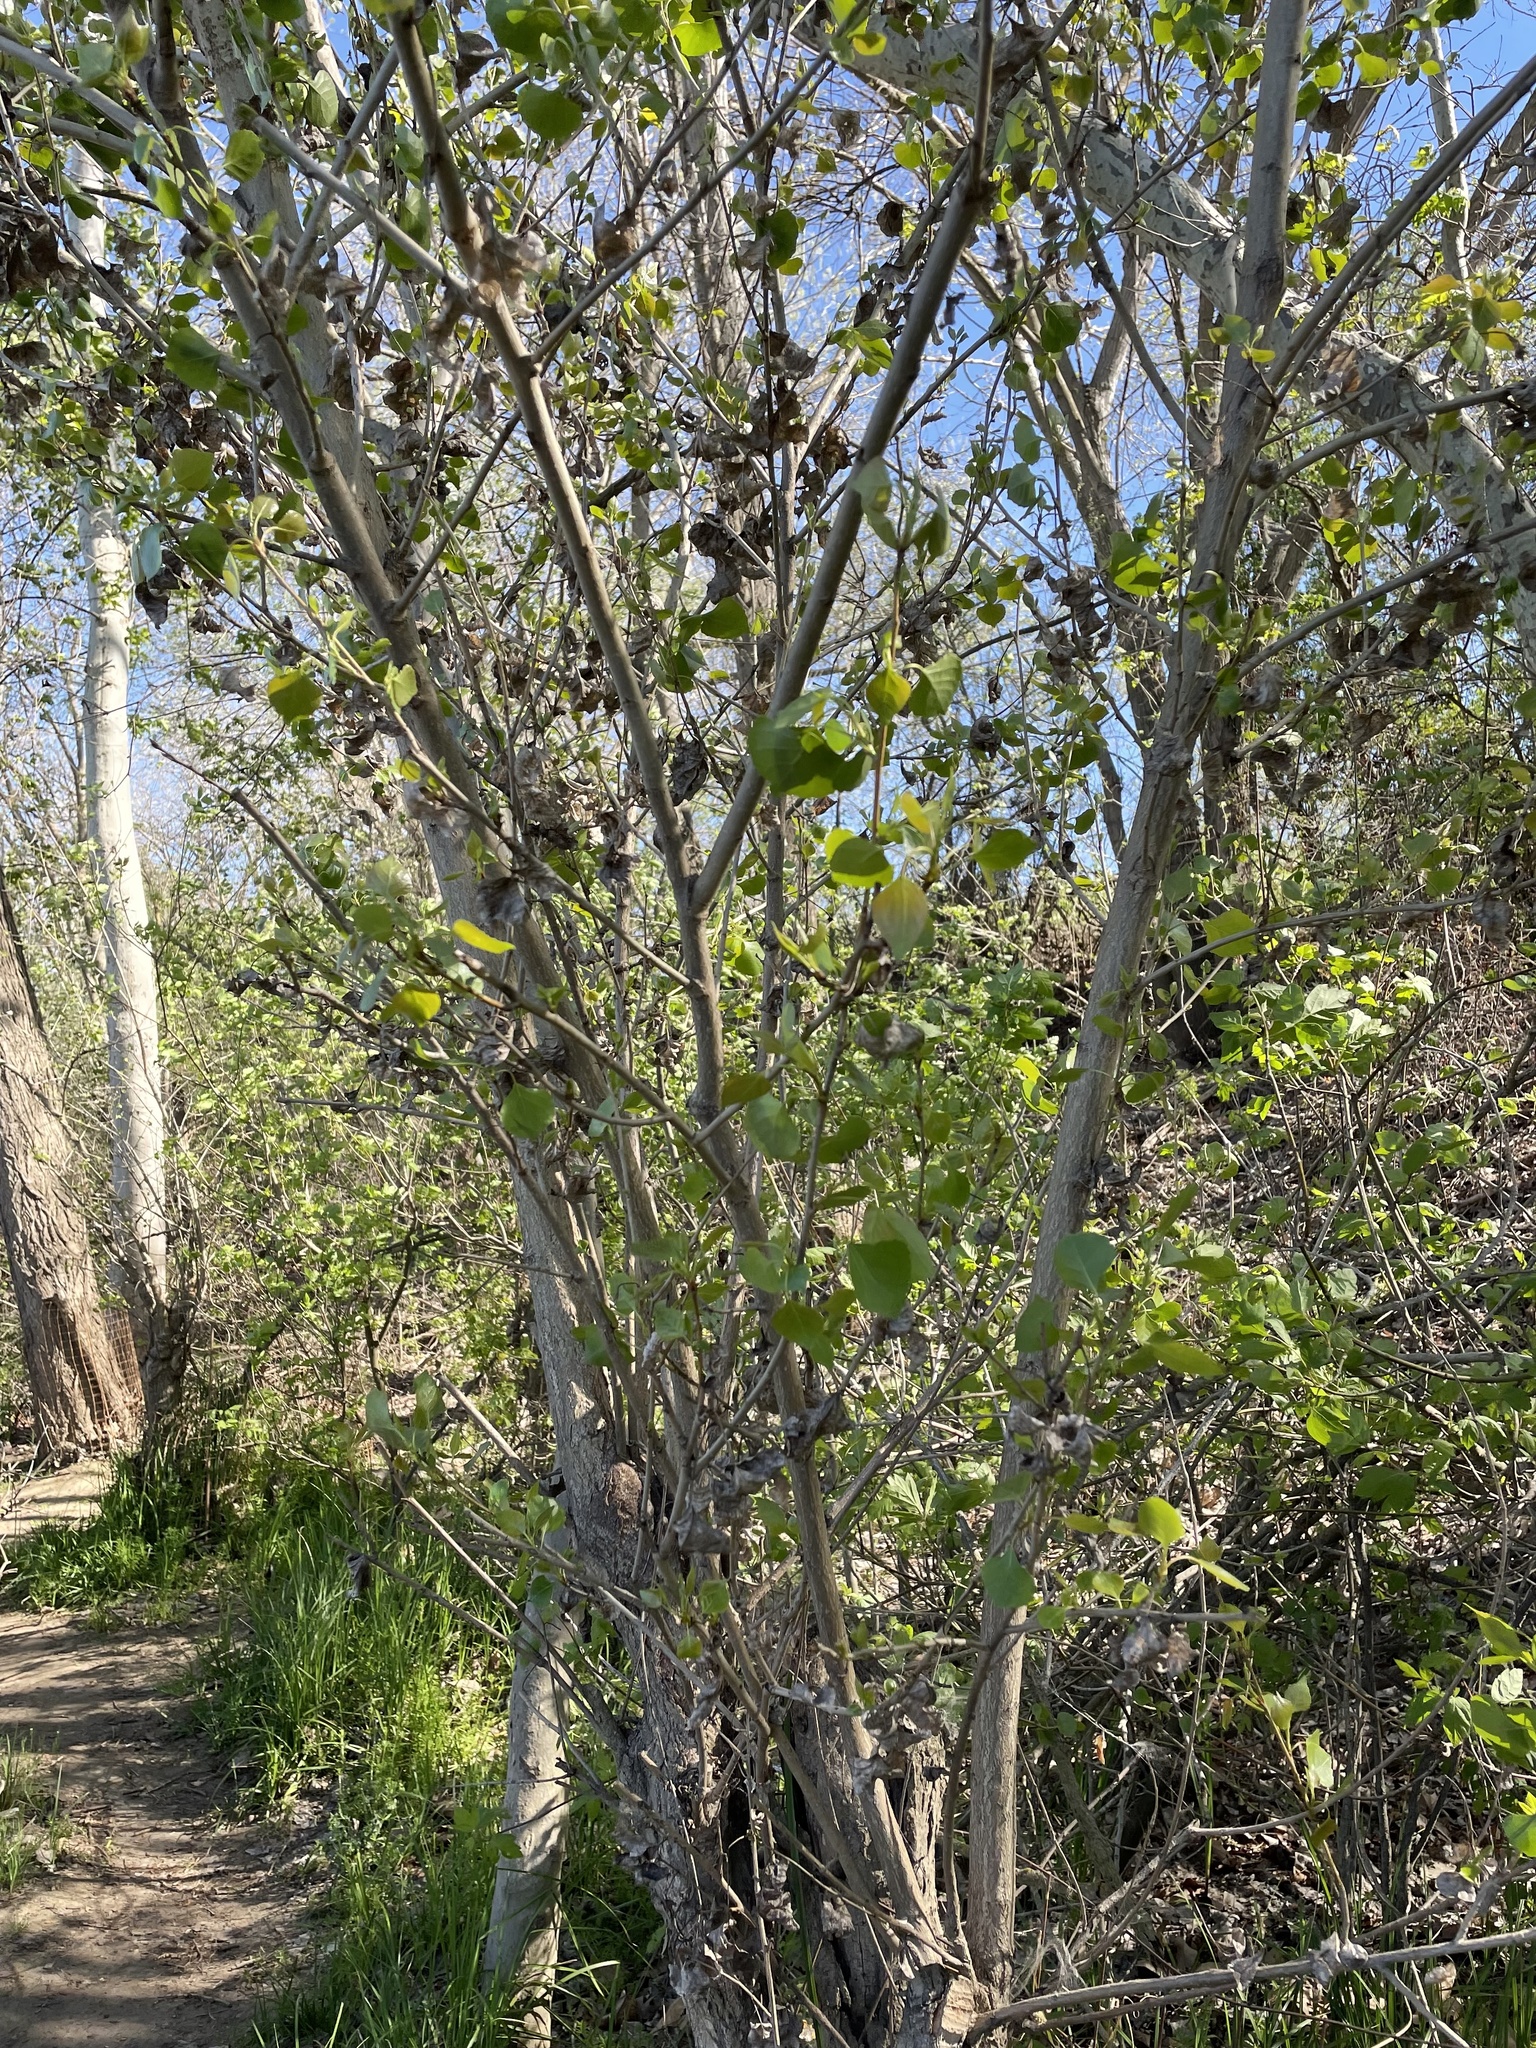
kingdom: Plantae
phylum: Tracheophyta
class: Magnoliopsida
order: Malpighiales
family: Salicaceae
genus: Populus
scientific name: Populus fremontii
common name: Fremont's cottonwood
